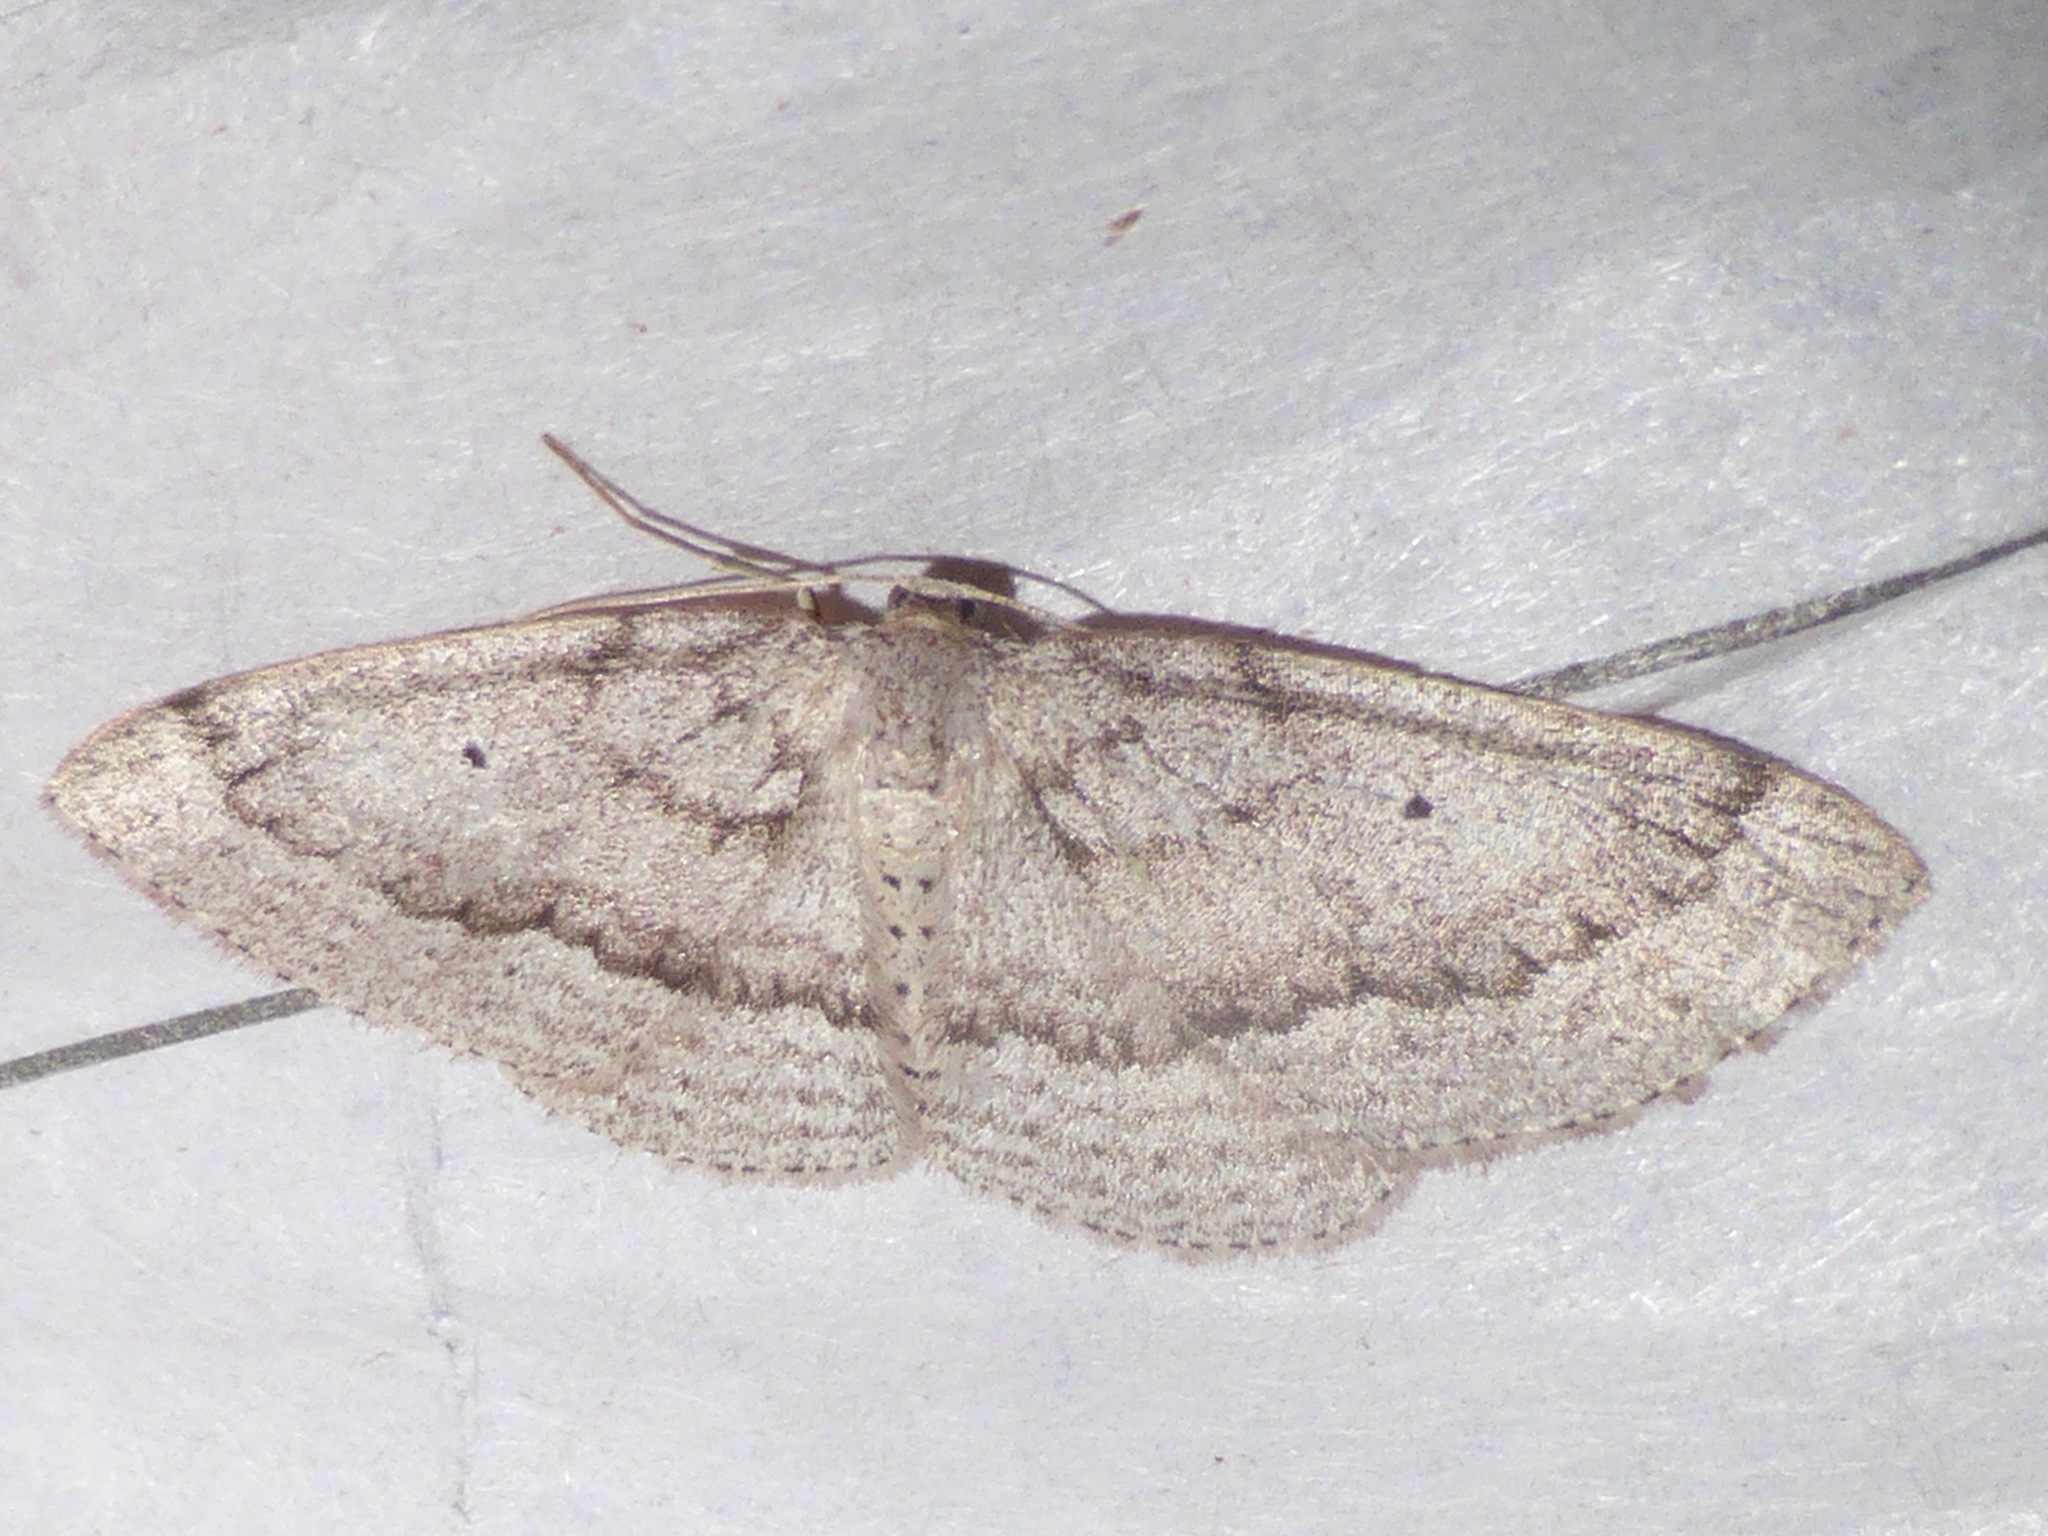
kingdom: Animalia
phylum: Arthropoda
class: Insecta
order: Lepidoptera
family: Geometridae
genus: Poecilasthena
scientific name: Poecilasthena schistaria
